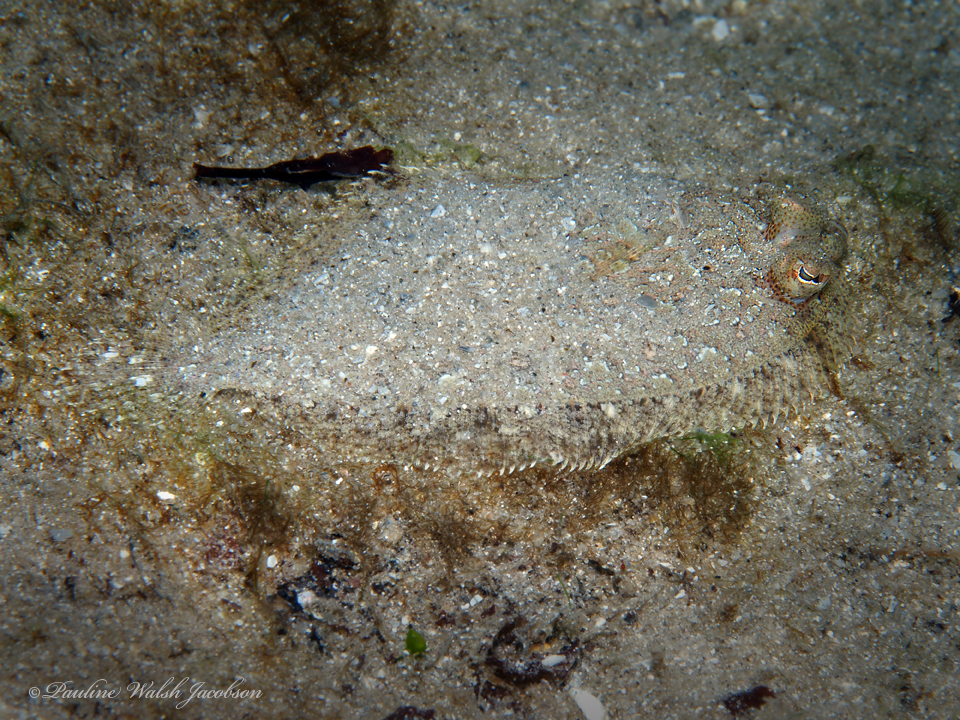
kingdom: Animalia
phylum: Chordata
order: Pleuronectiformes
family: Bothidae
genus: Bothus
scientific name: Bothus ocellatus
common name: Eyed flounder
